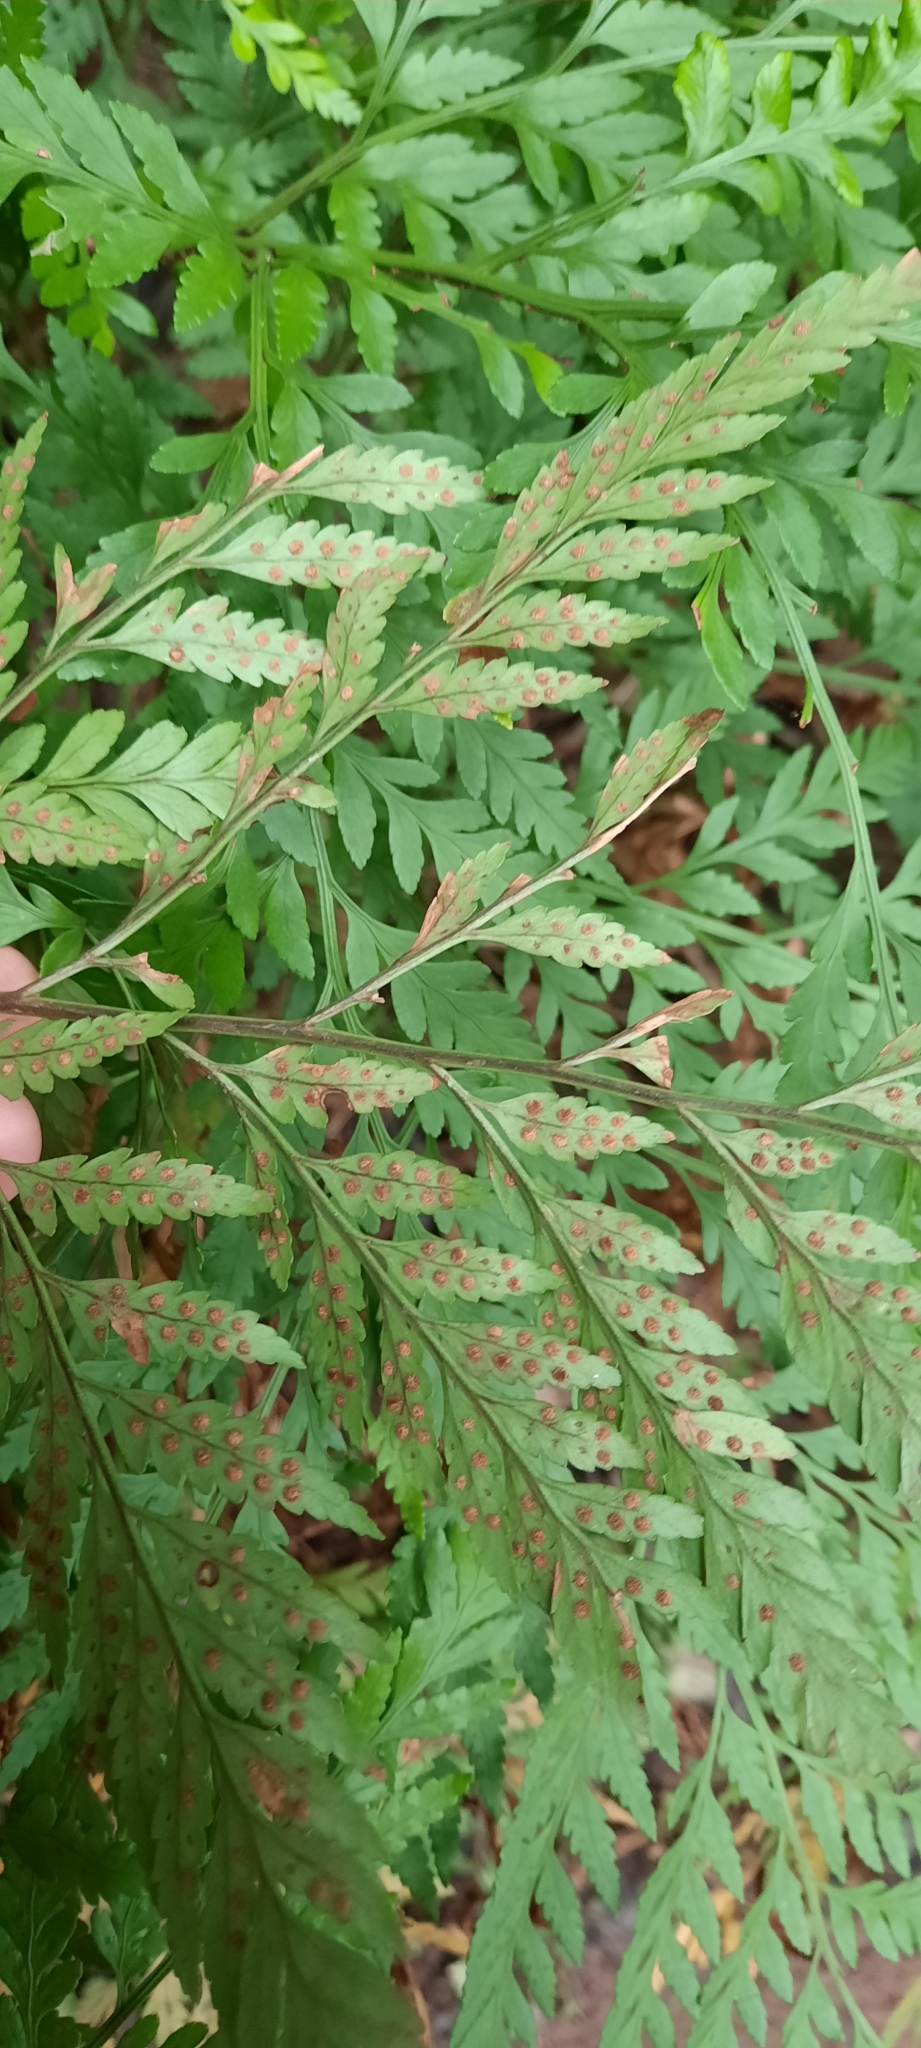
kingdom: Plantae
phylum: Tracheophyta
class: Polypodiopsida
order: Polypodiales
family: Dryopteridaceae
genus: Rumohra
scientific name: Rumohra adiantiformis
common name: Leather fern
